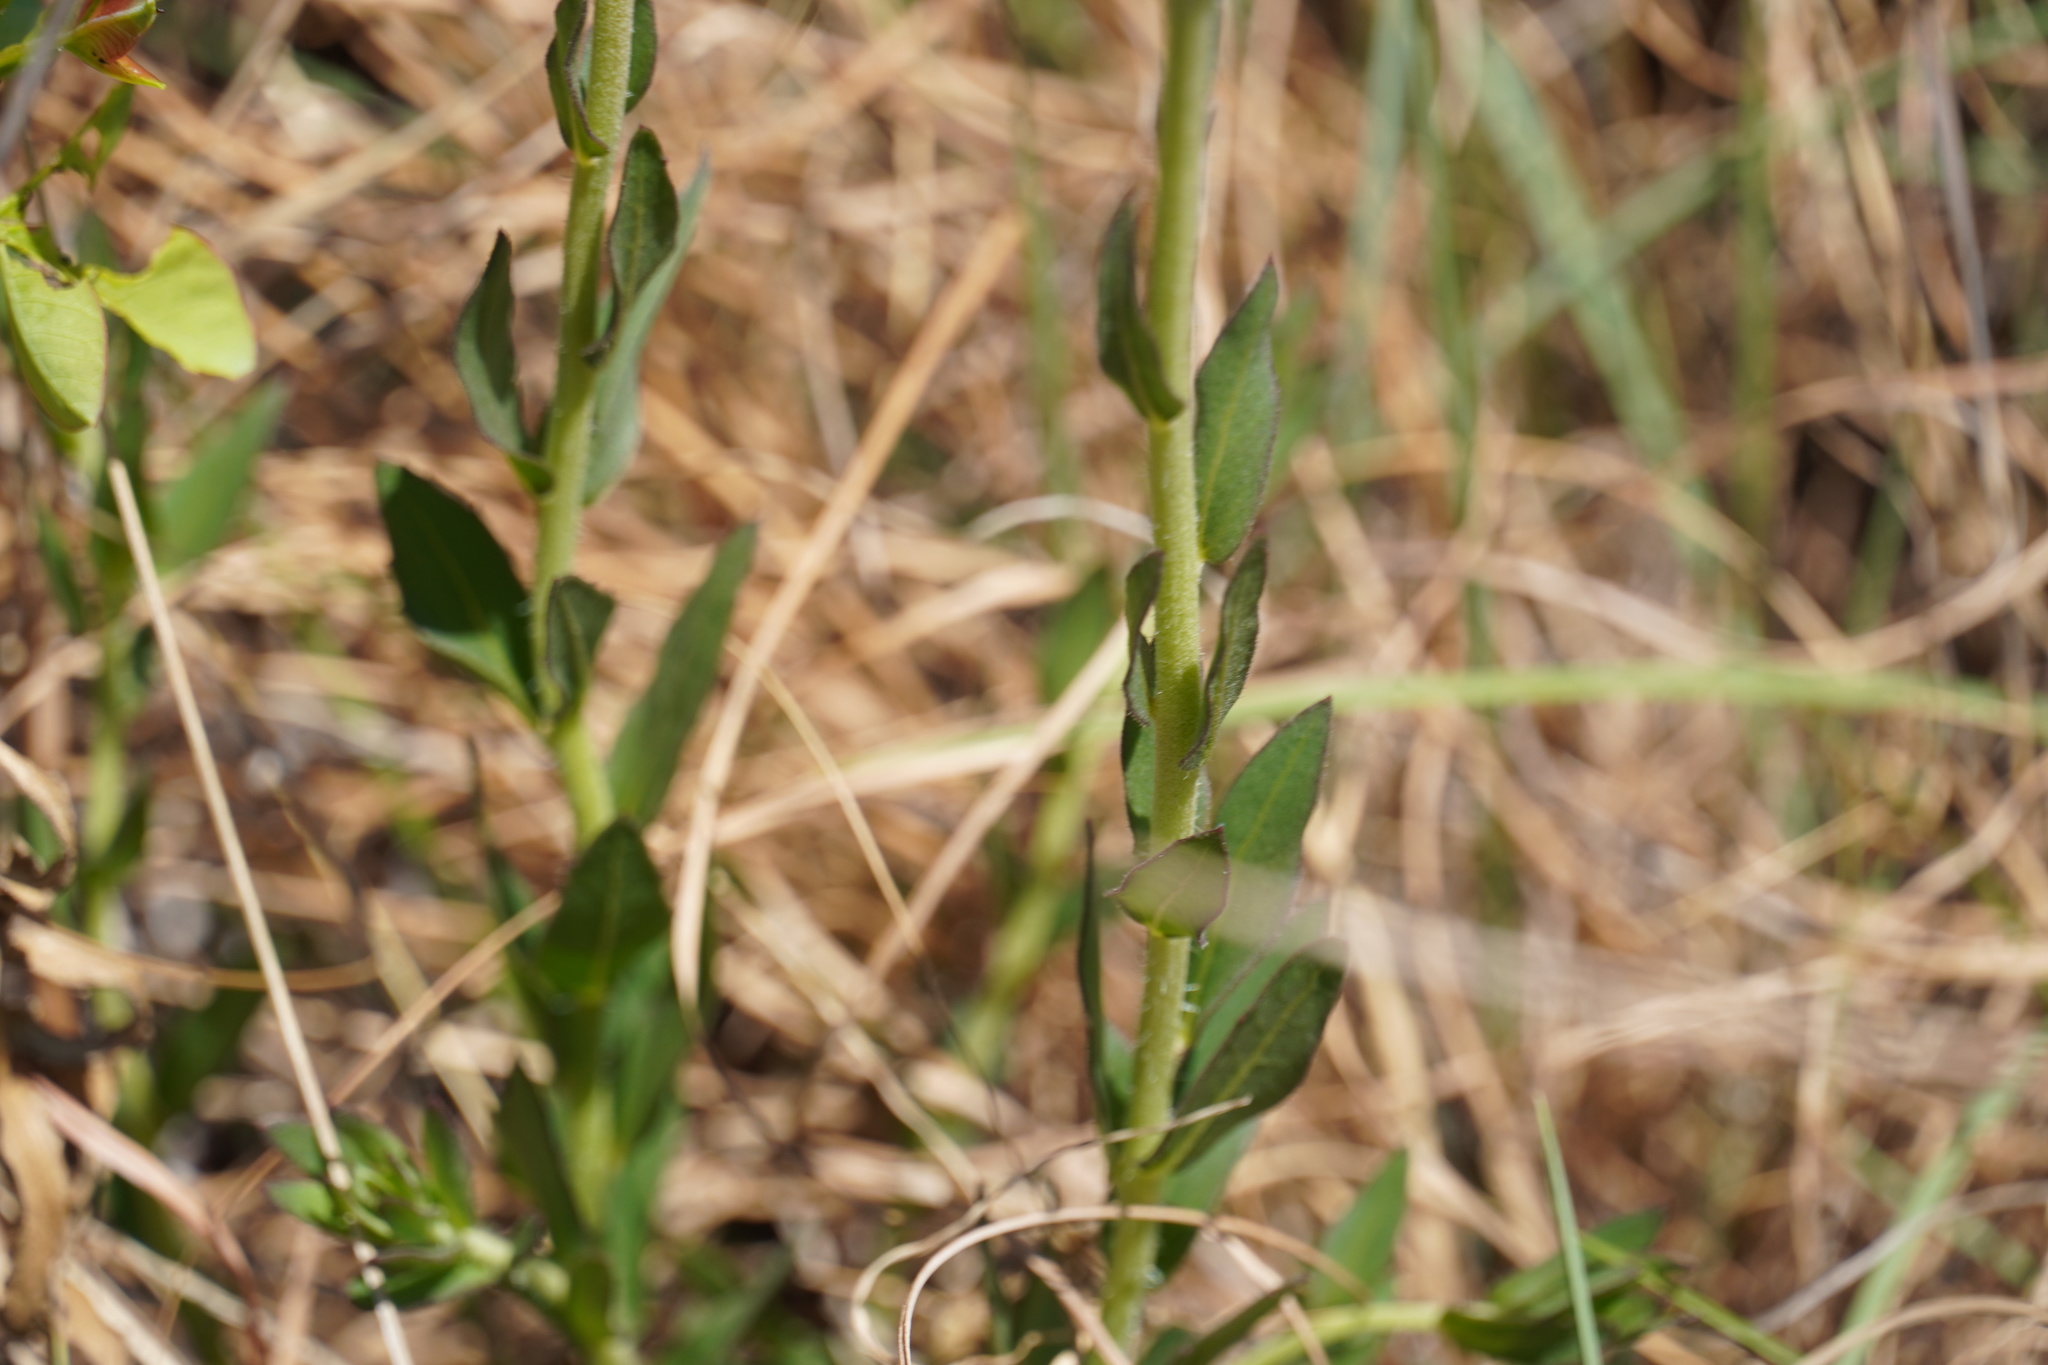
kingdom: Plantae
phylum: Tracheophyta
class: Magnoliopsida
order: Asterales
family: Asteraceae
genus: Pseudopegolettia
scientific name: Pseudopegolettia tenella
